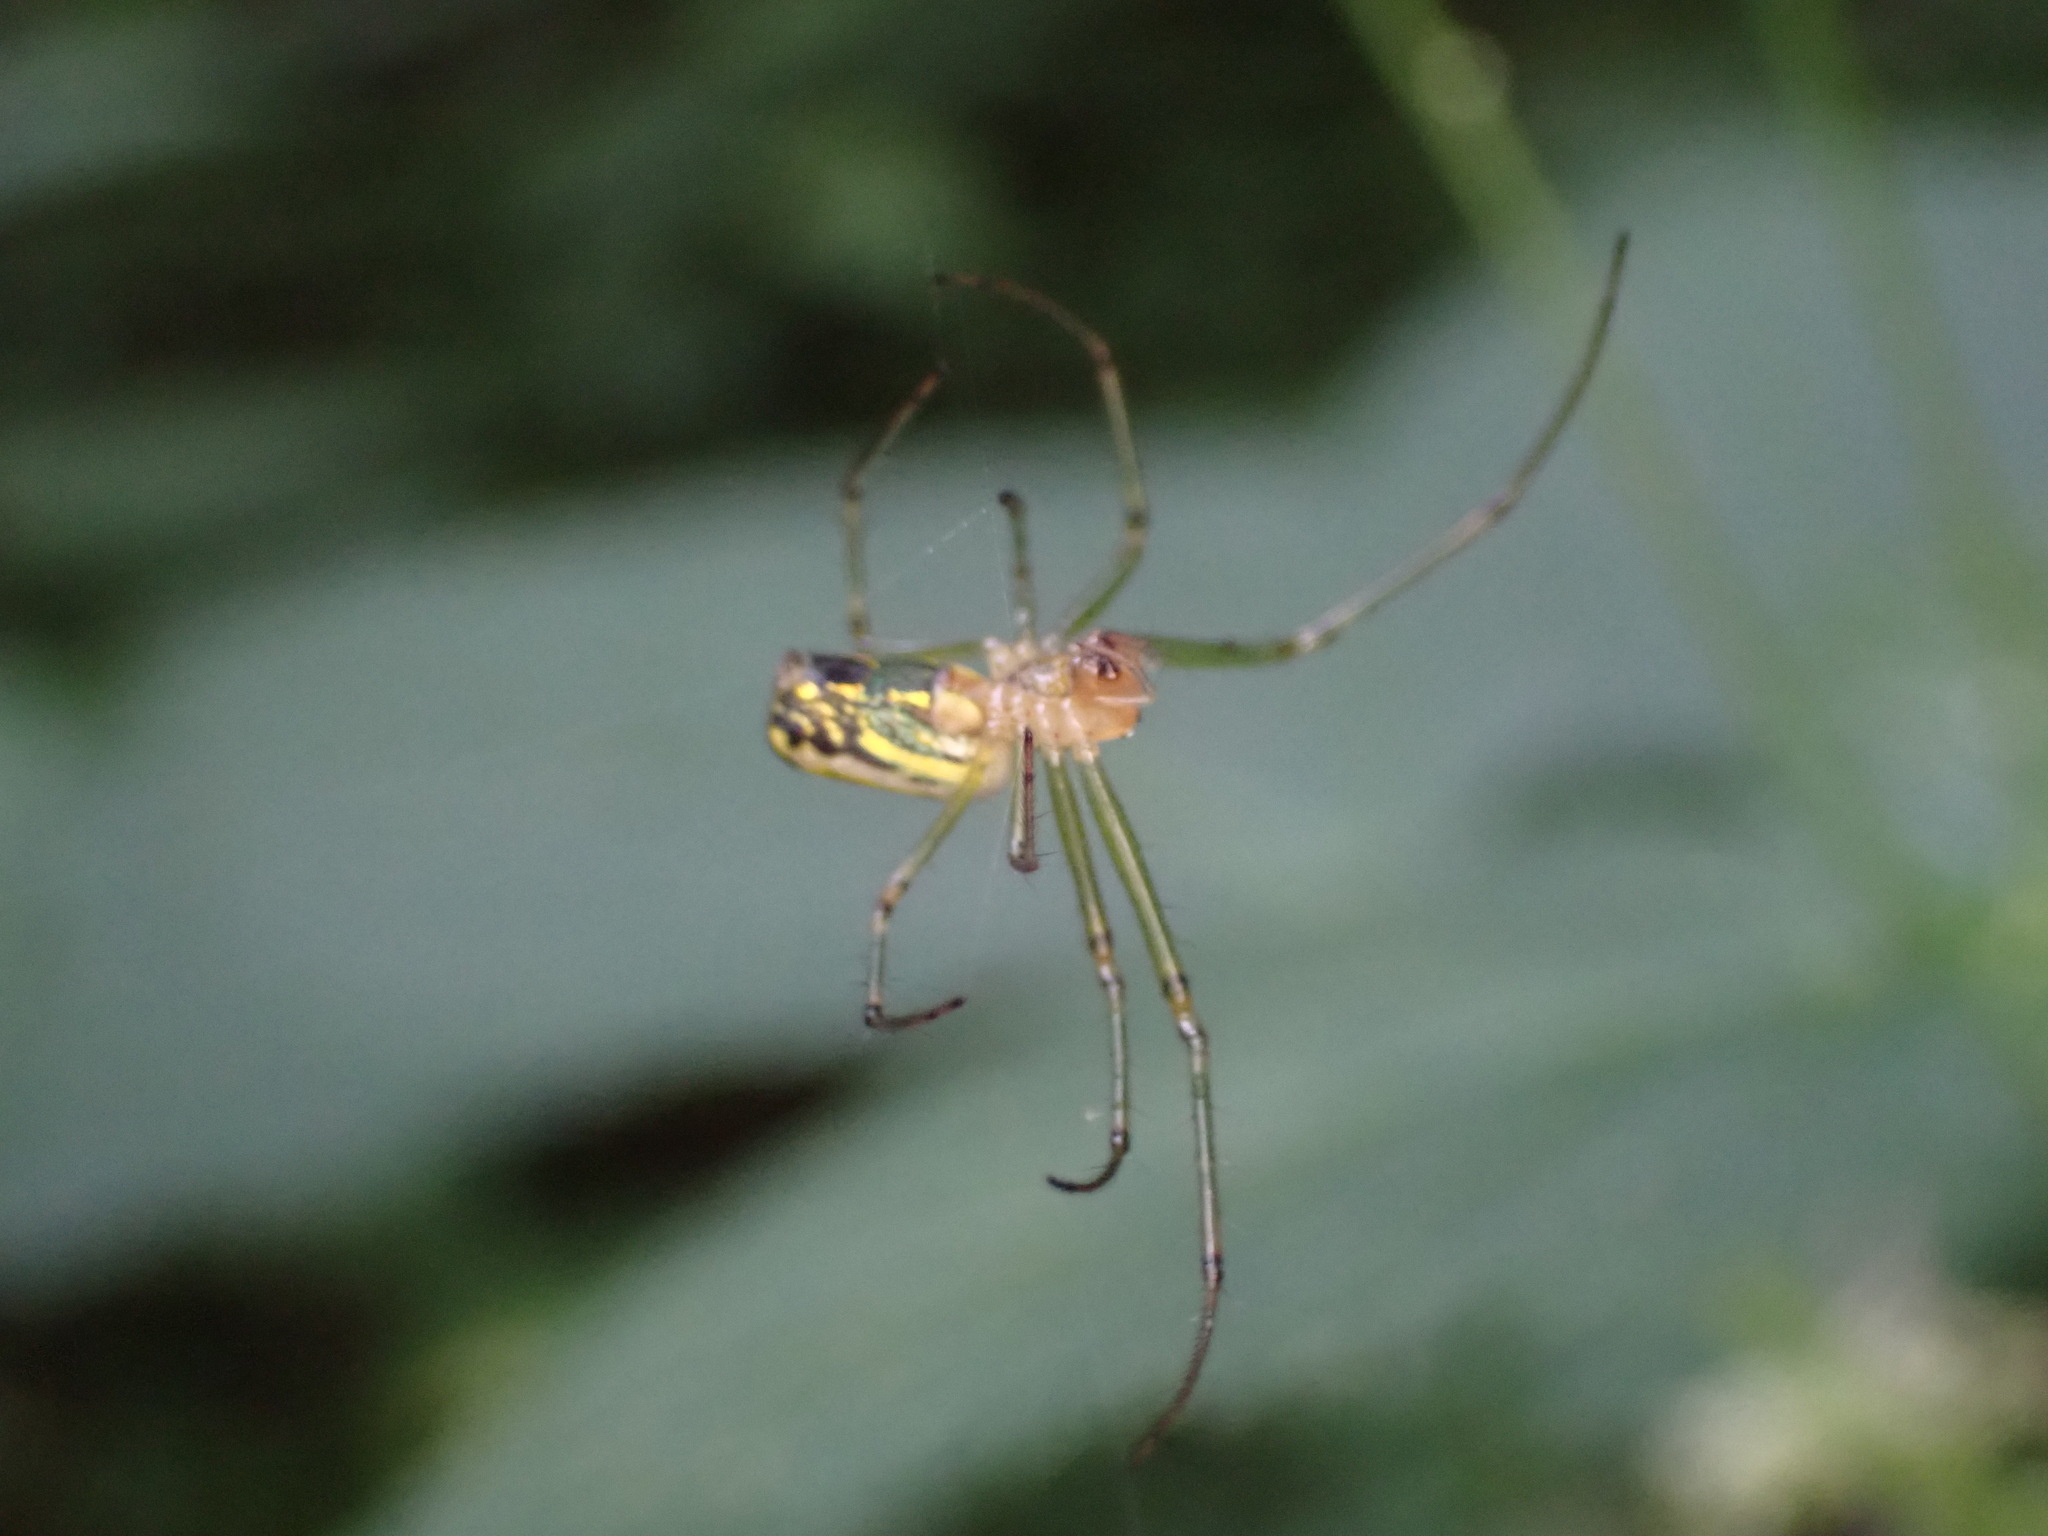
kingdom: Animalia
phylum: Arthropoda
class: Arachnida
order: Araneae
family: Tetragnathidae
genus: Leucauge
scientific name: Leucauge venusta
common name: Longjawed orb weavers
